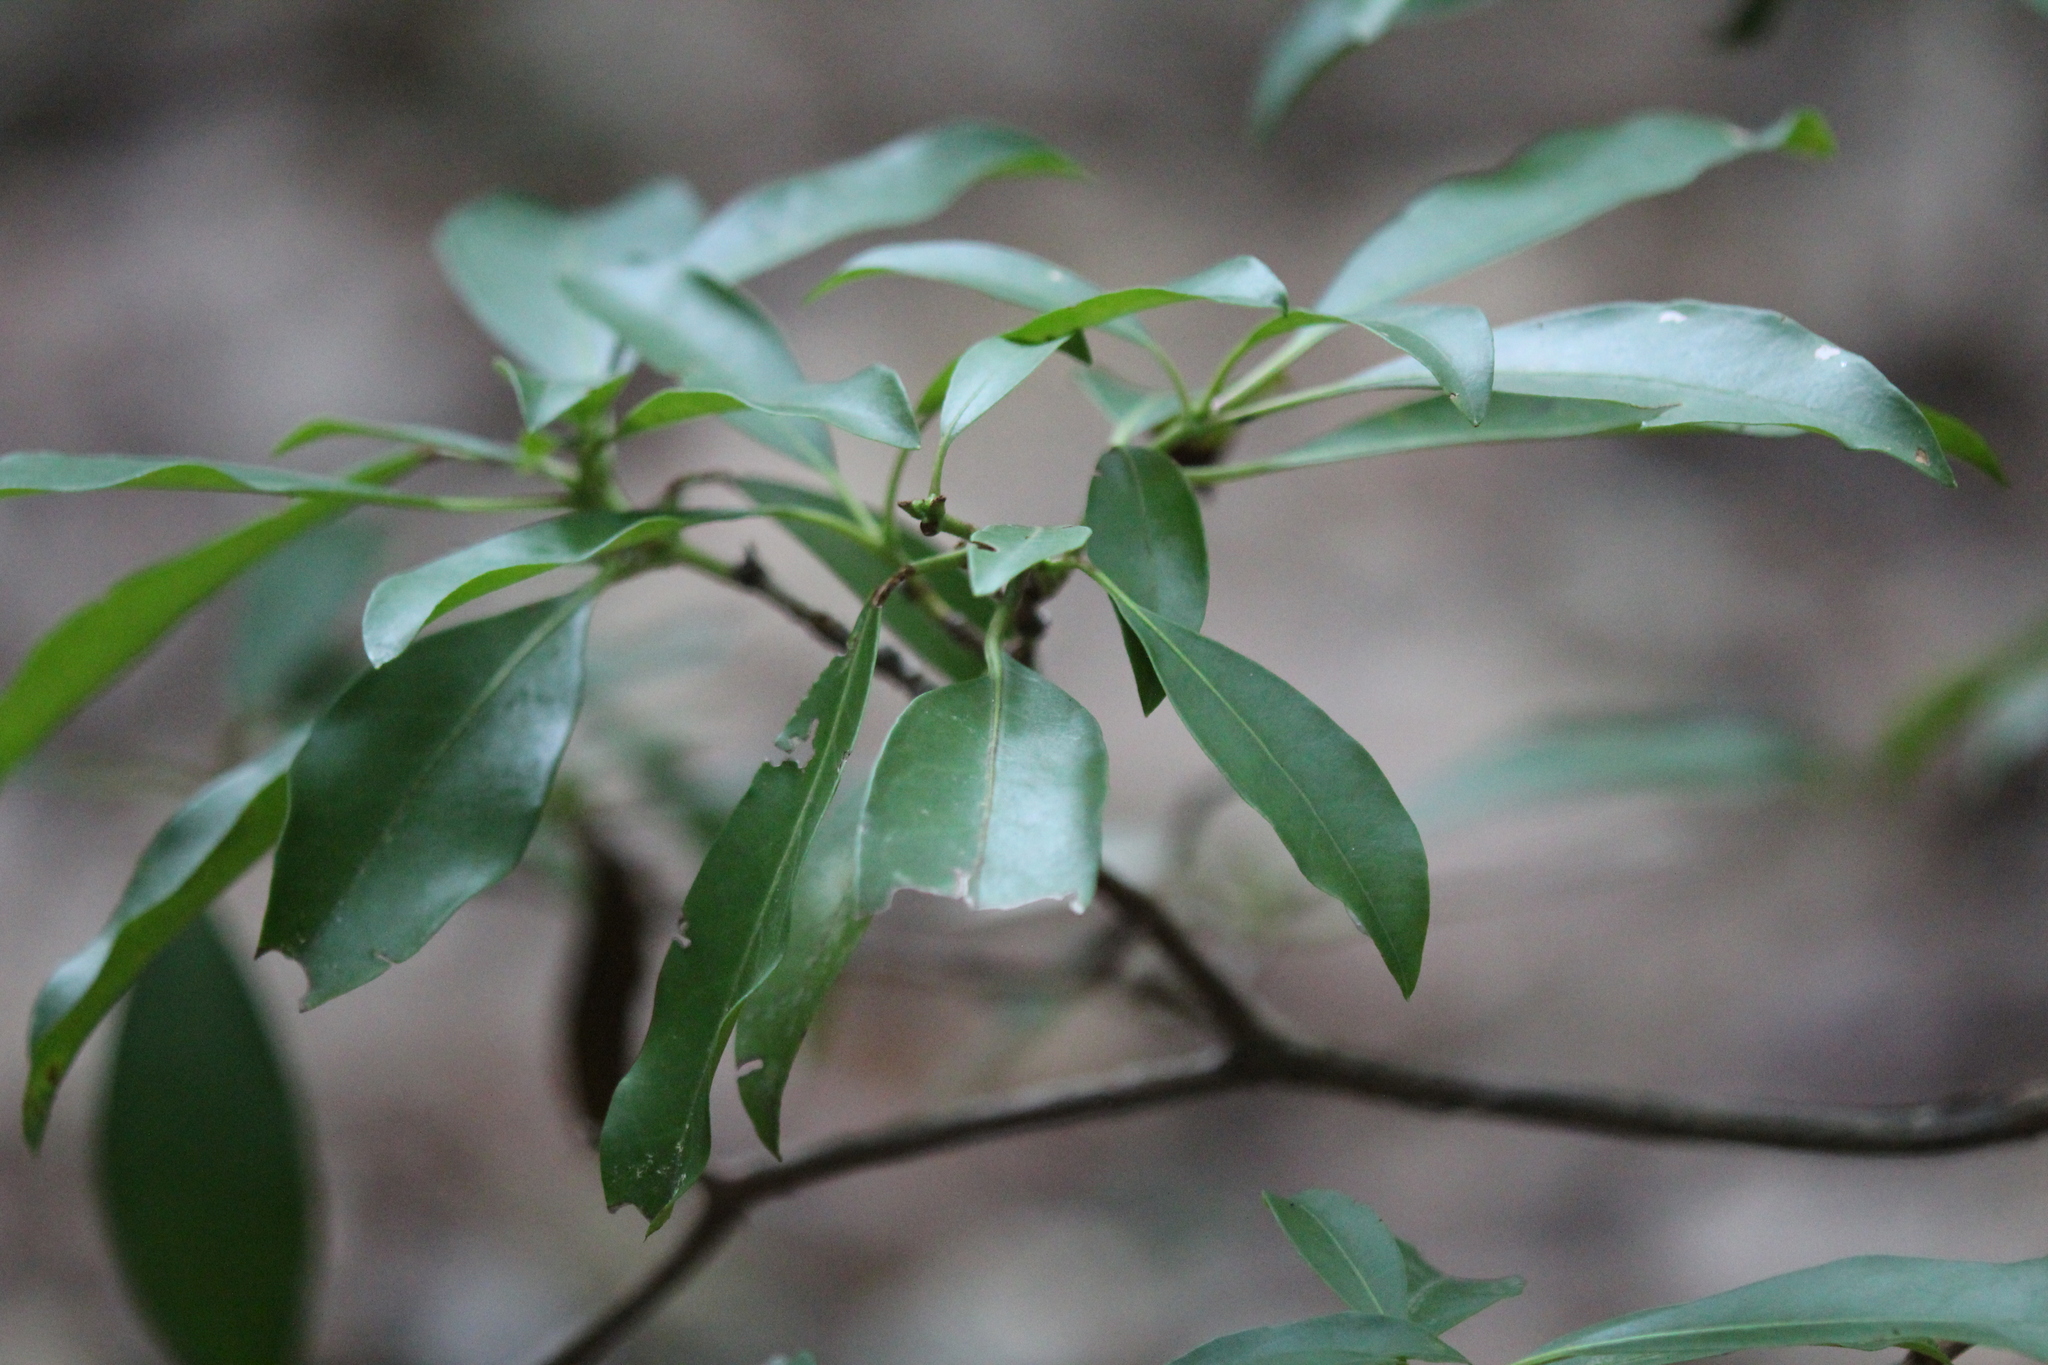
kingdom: Plantae
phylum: Tracheophyta
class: Magnoliopsida
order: Ericales
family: Ericaceae
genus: Kalmia
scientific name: Kalmia latifolia
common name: Mountain-laurel
